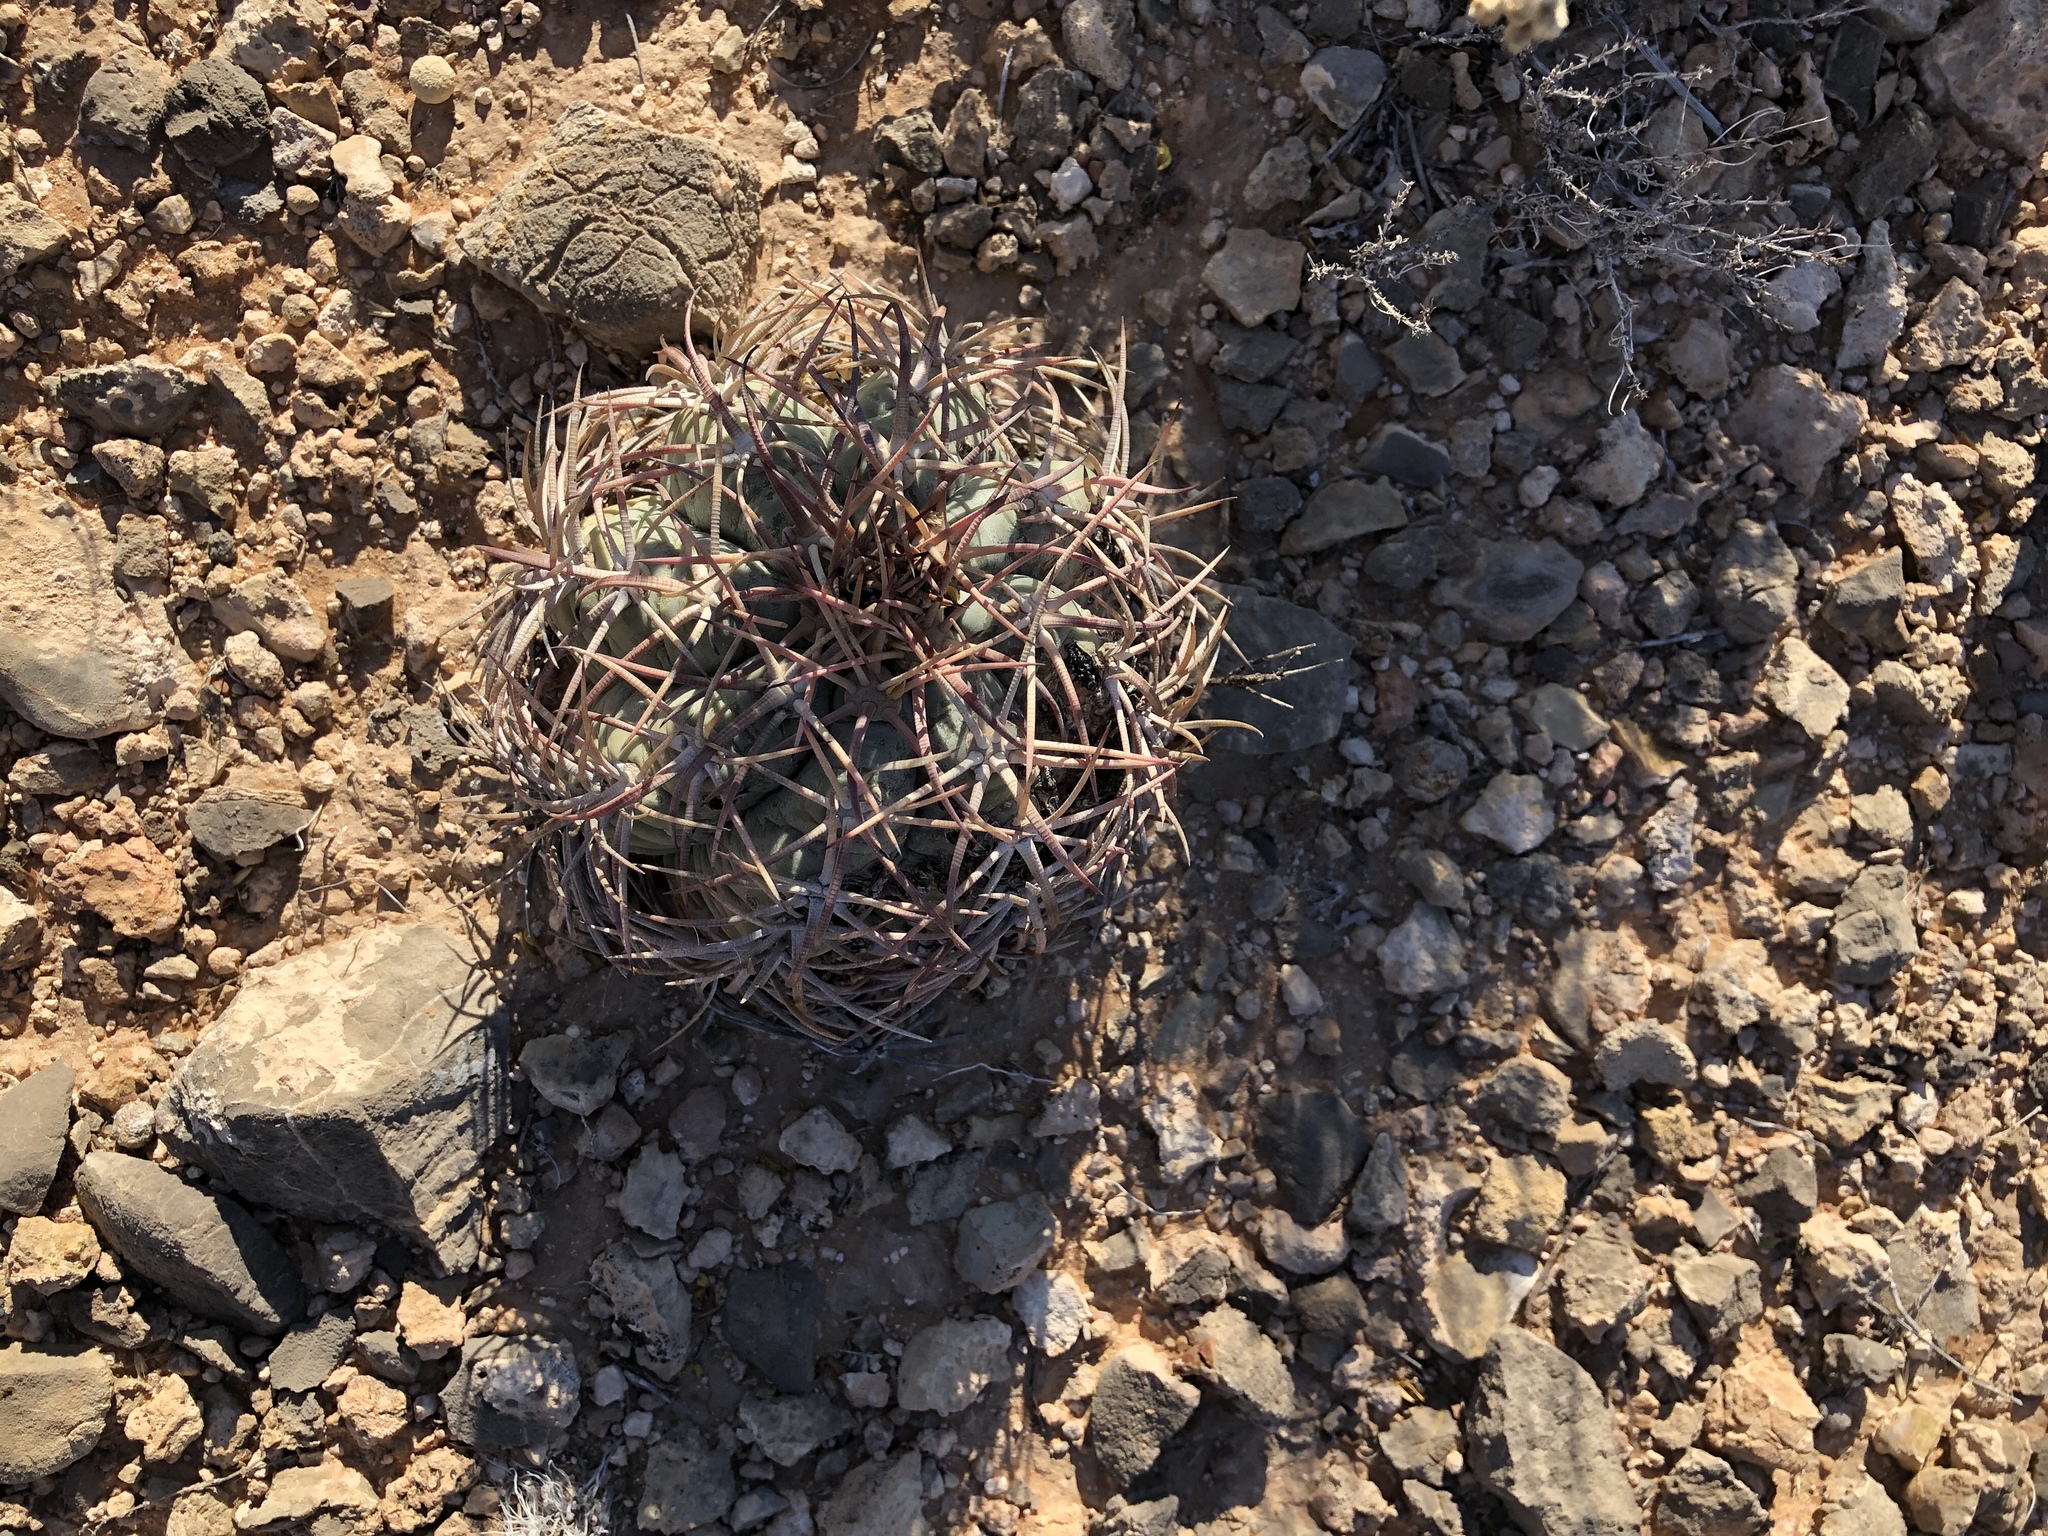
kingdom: Plantae
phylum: Tracheophyta
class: Magnoliopsida
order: Caryophyllales
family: Cactaceae
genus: Echinocactus
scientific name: Echinocactus horizonthalonius
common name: Devilshead
